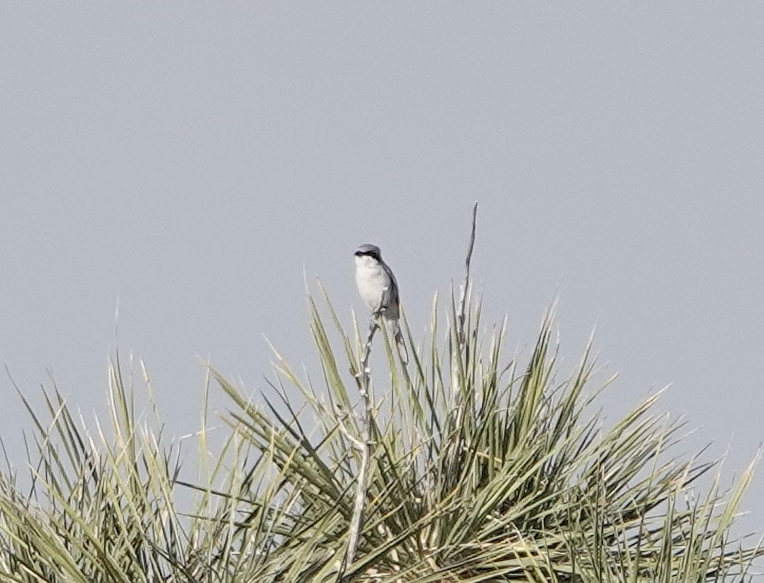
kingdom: Animalia
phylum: Chordata
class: Aves
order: Passeriformes
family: Laniidae
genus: Lanius
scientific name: Lanius ludovicianus
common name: Loggerhead shrike
